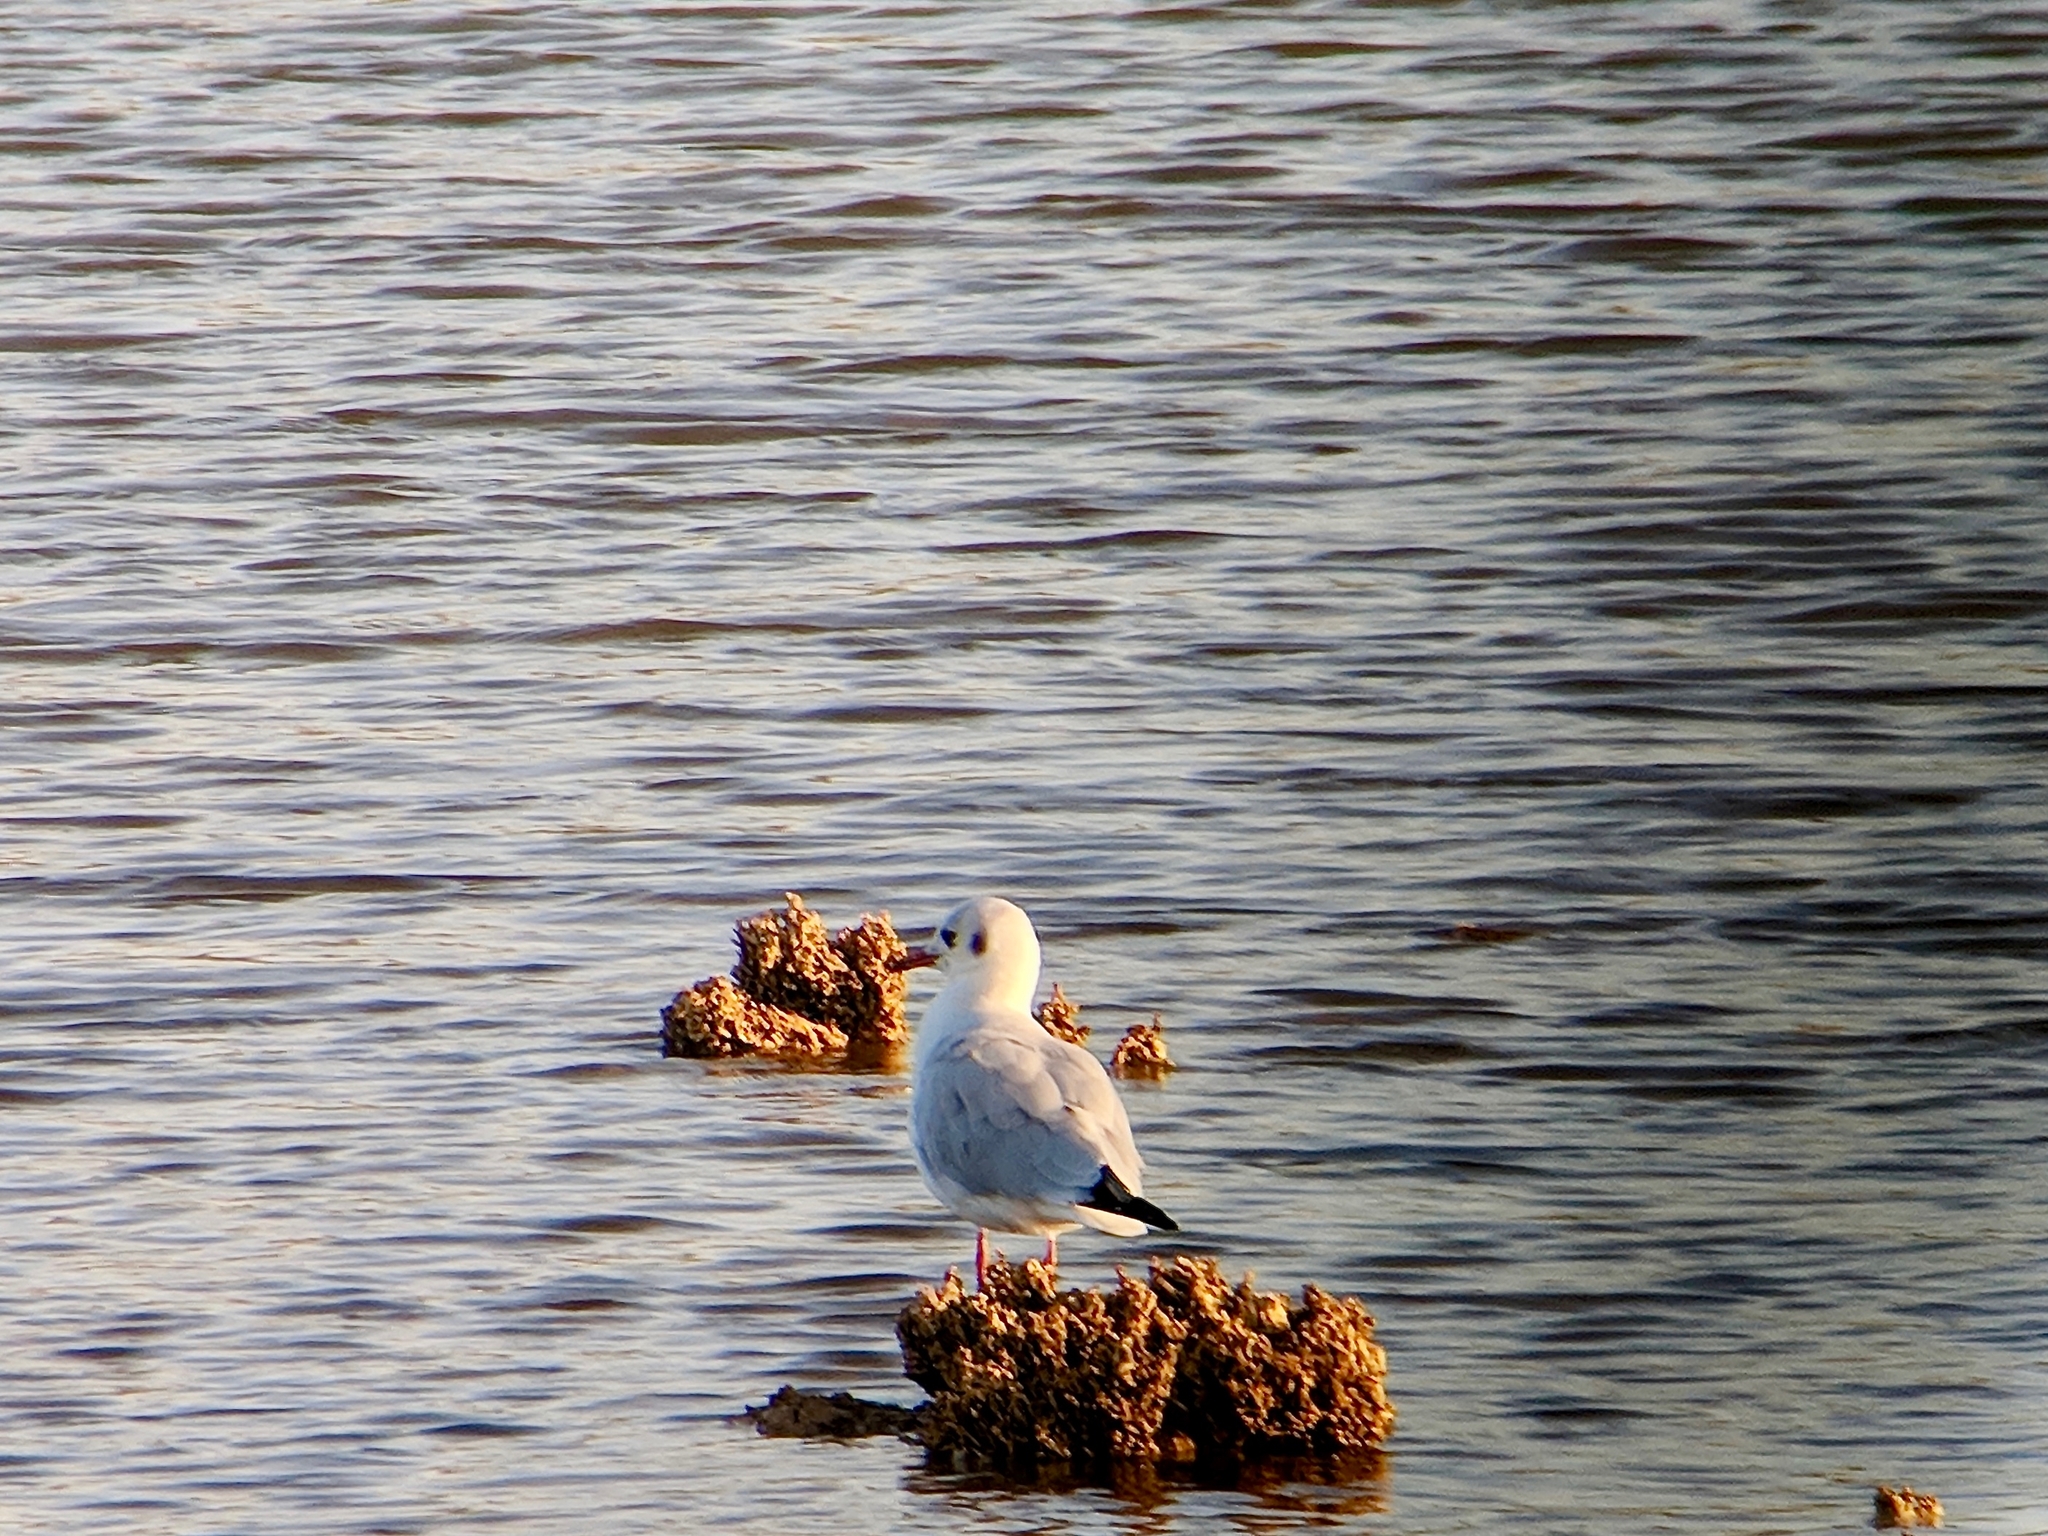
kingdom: Animalia
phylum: Chordata
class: Aves
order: Charadriiformes
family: Laridae
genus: Chroicocephalus
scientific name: Chroicocephalus ridibundus
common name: Black-headed gull
